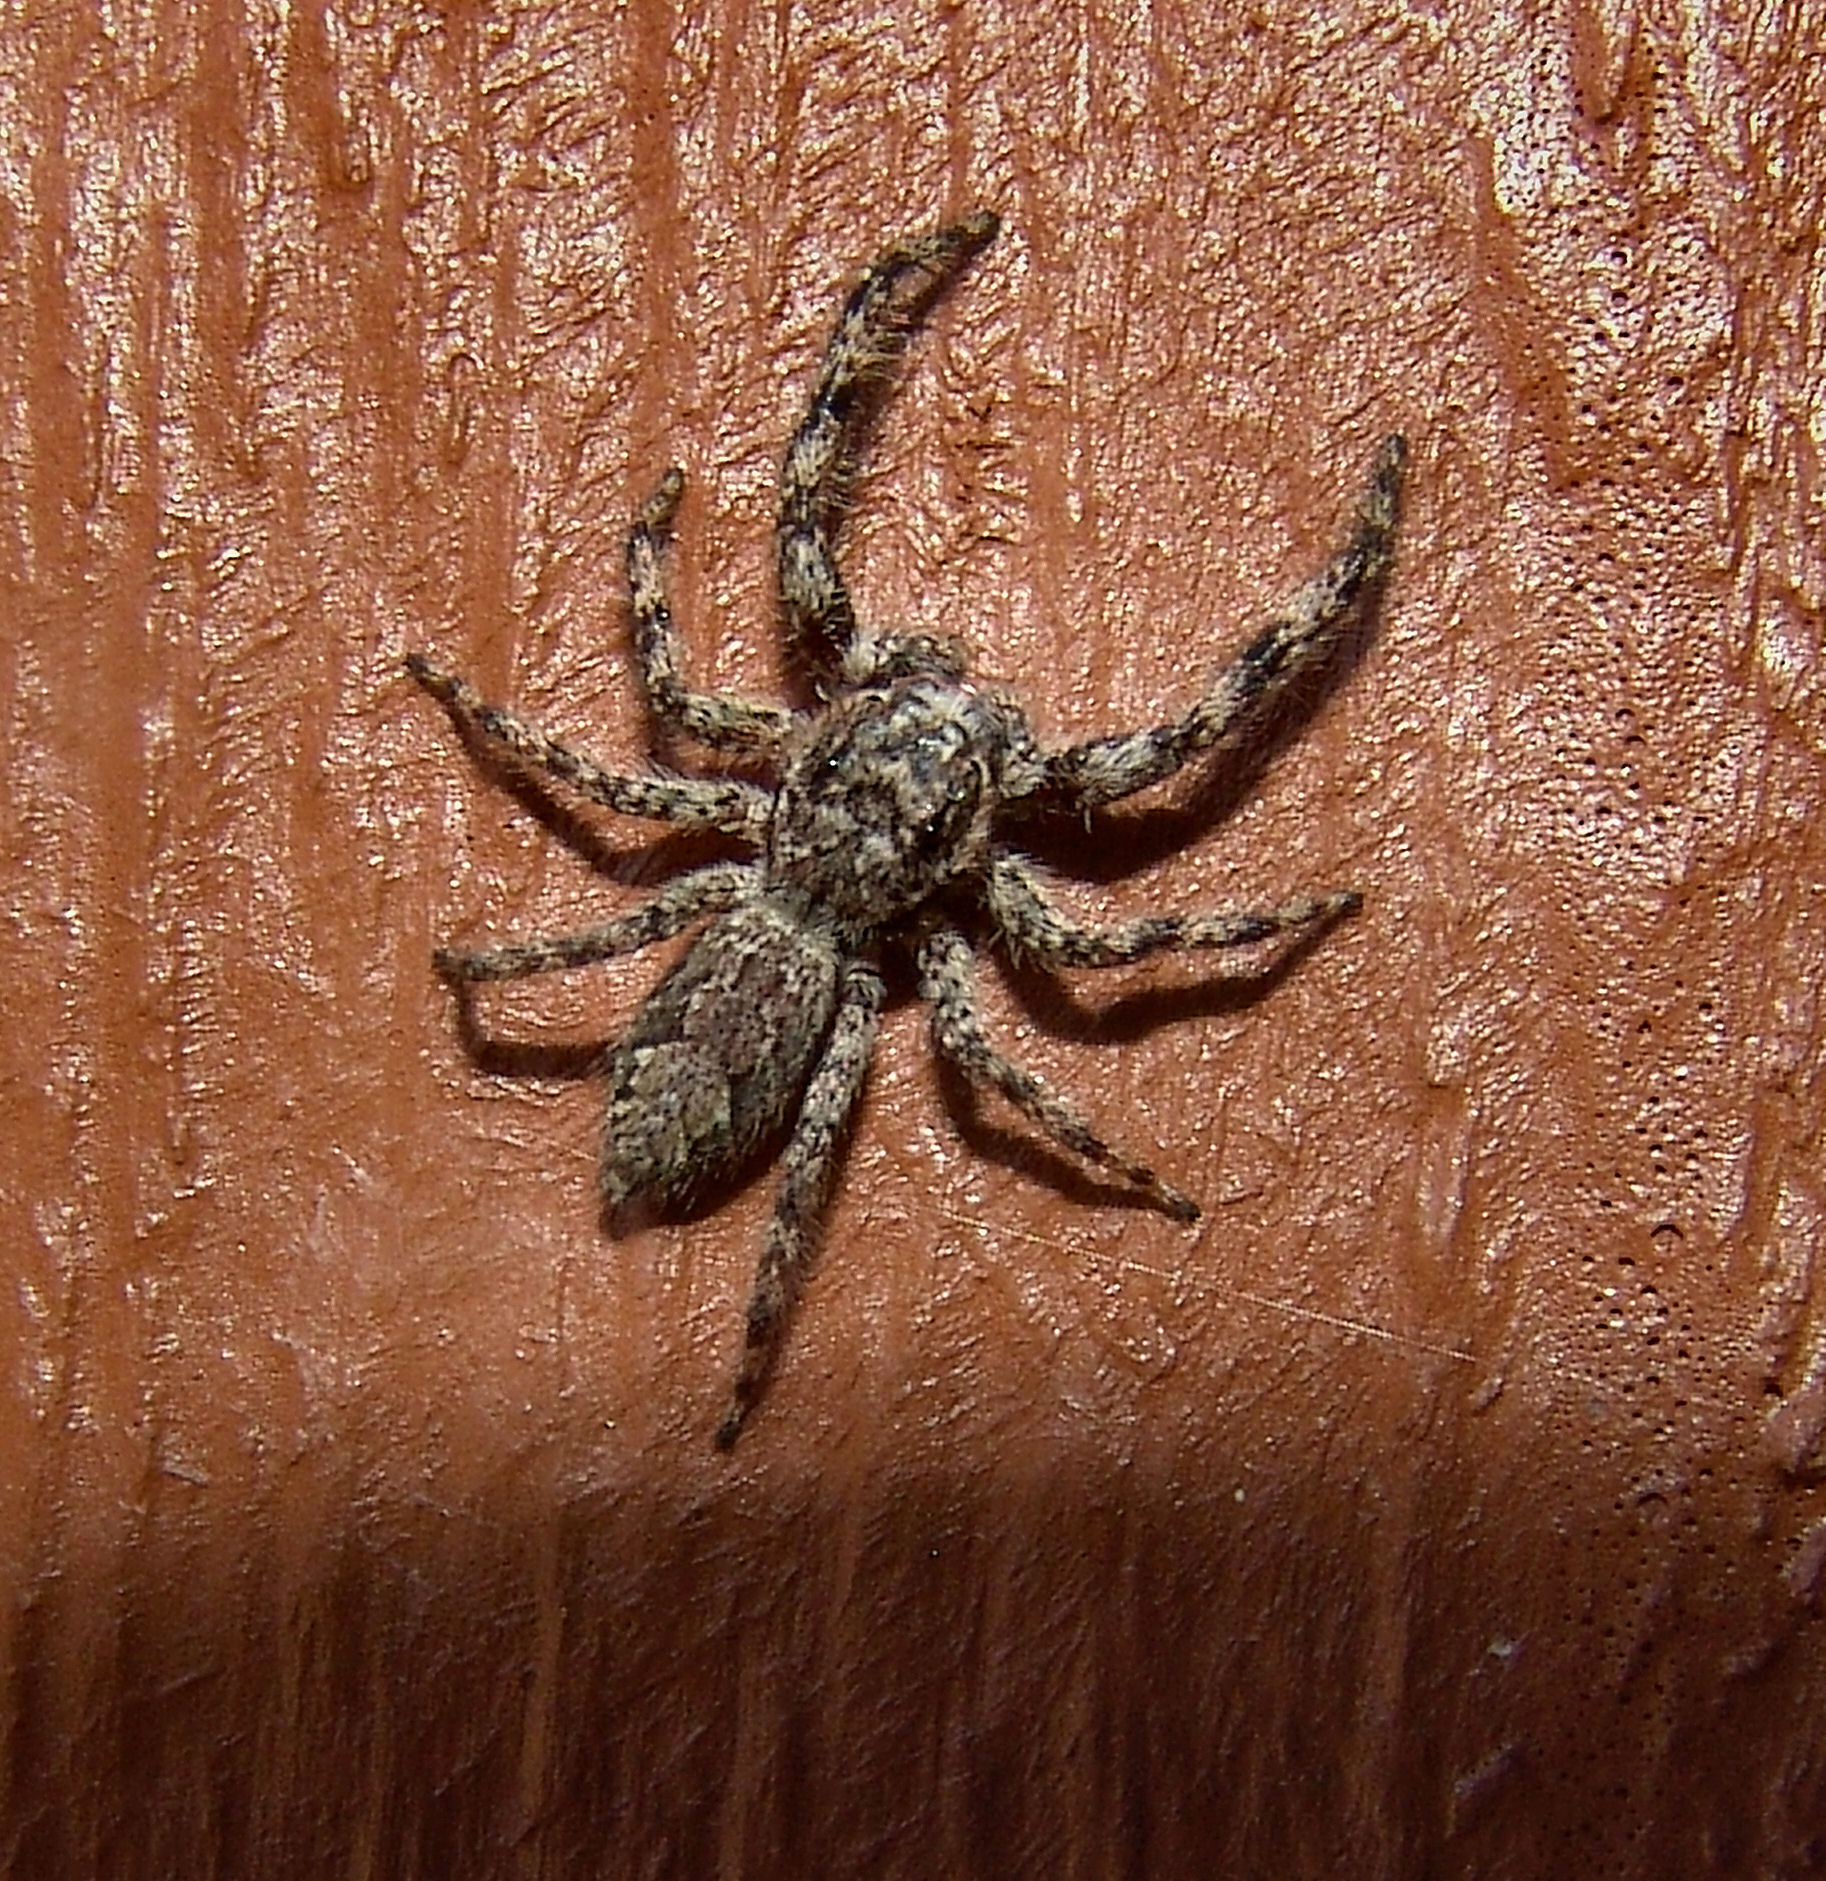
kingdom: Animalia
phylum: Arthropoda
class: Arachnida
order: Araneae
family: Salticidae
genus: Platycryptus
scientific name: Platycryptus undatus
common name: Tan jumping spider
